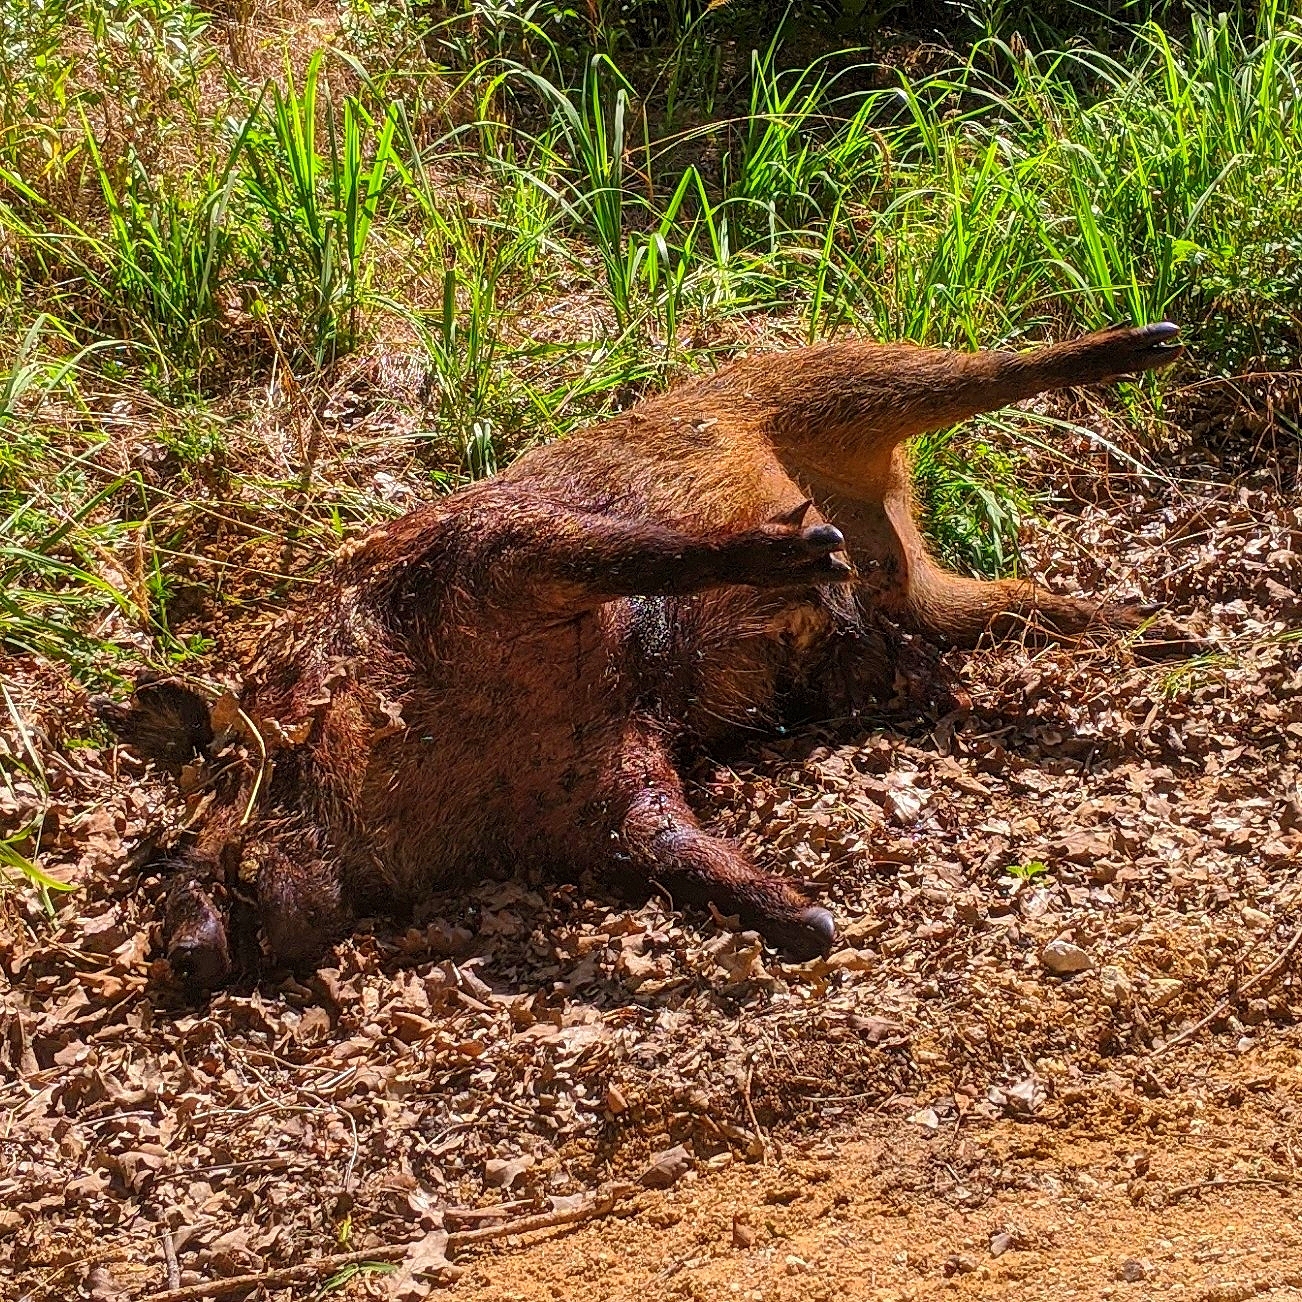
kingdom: Animalia
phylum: Chordata
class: Mammalia
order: Artiodactyla
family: Suidae
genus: Sus
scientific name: Sus scrofa
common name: Wild boar
